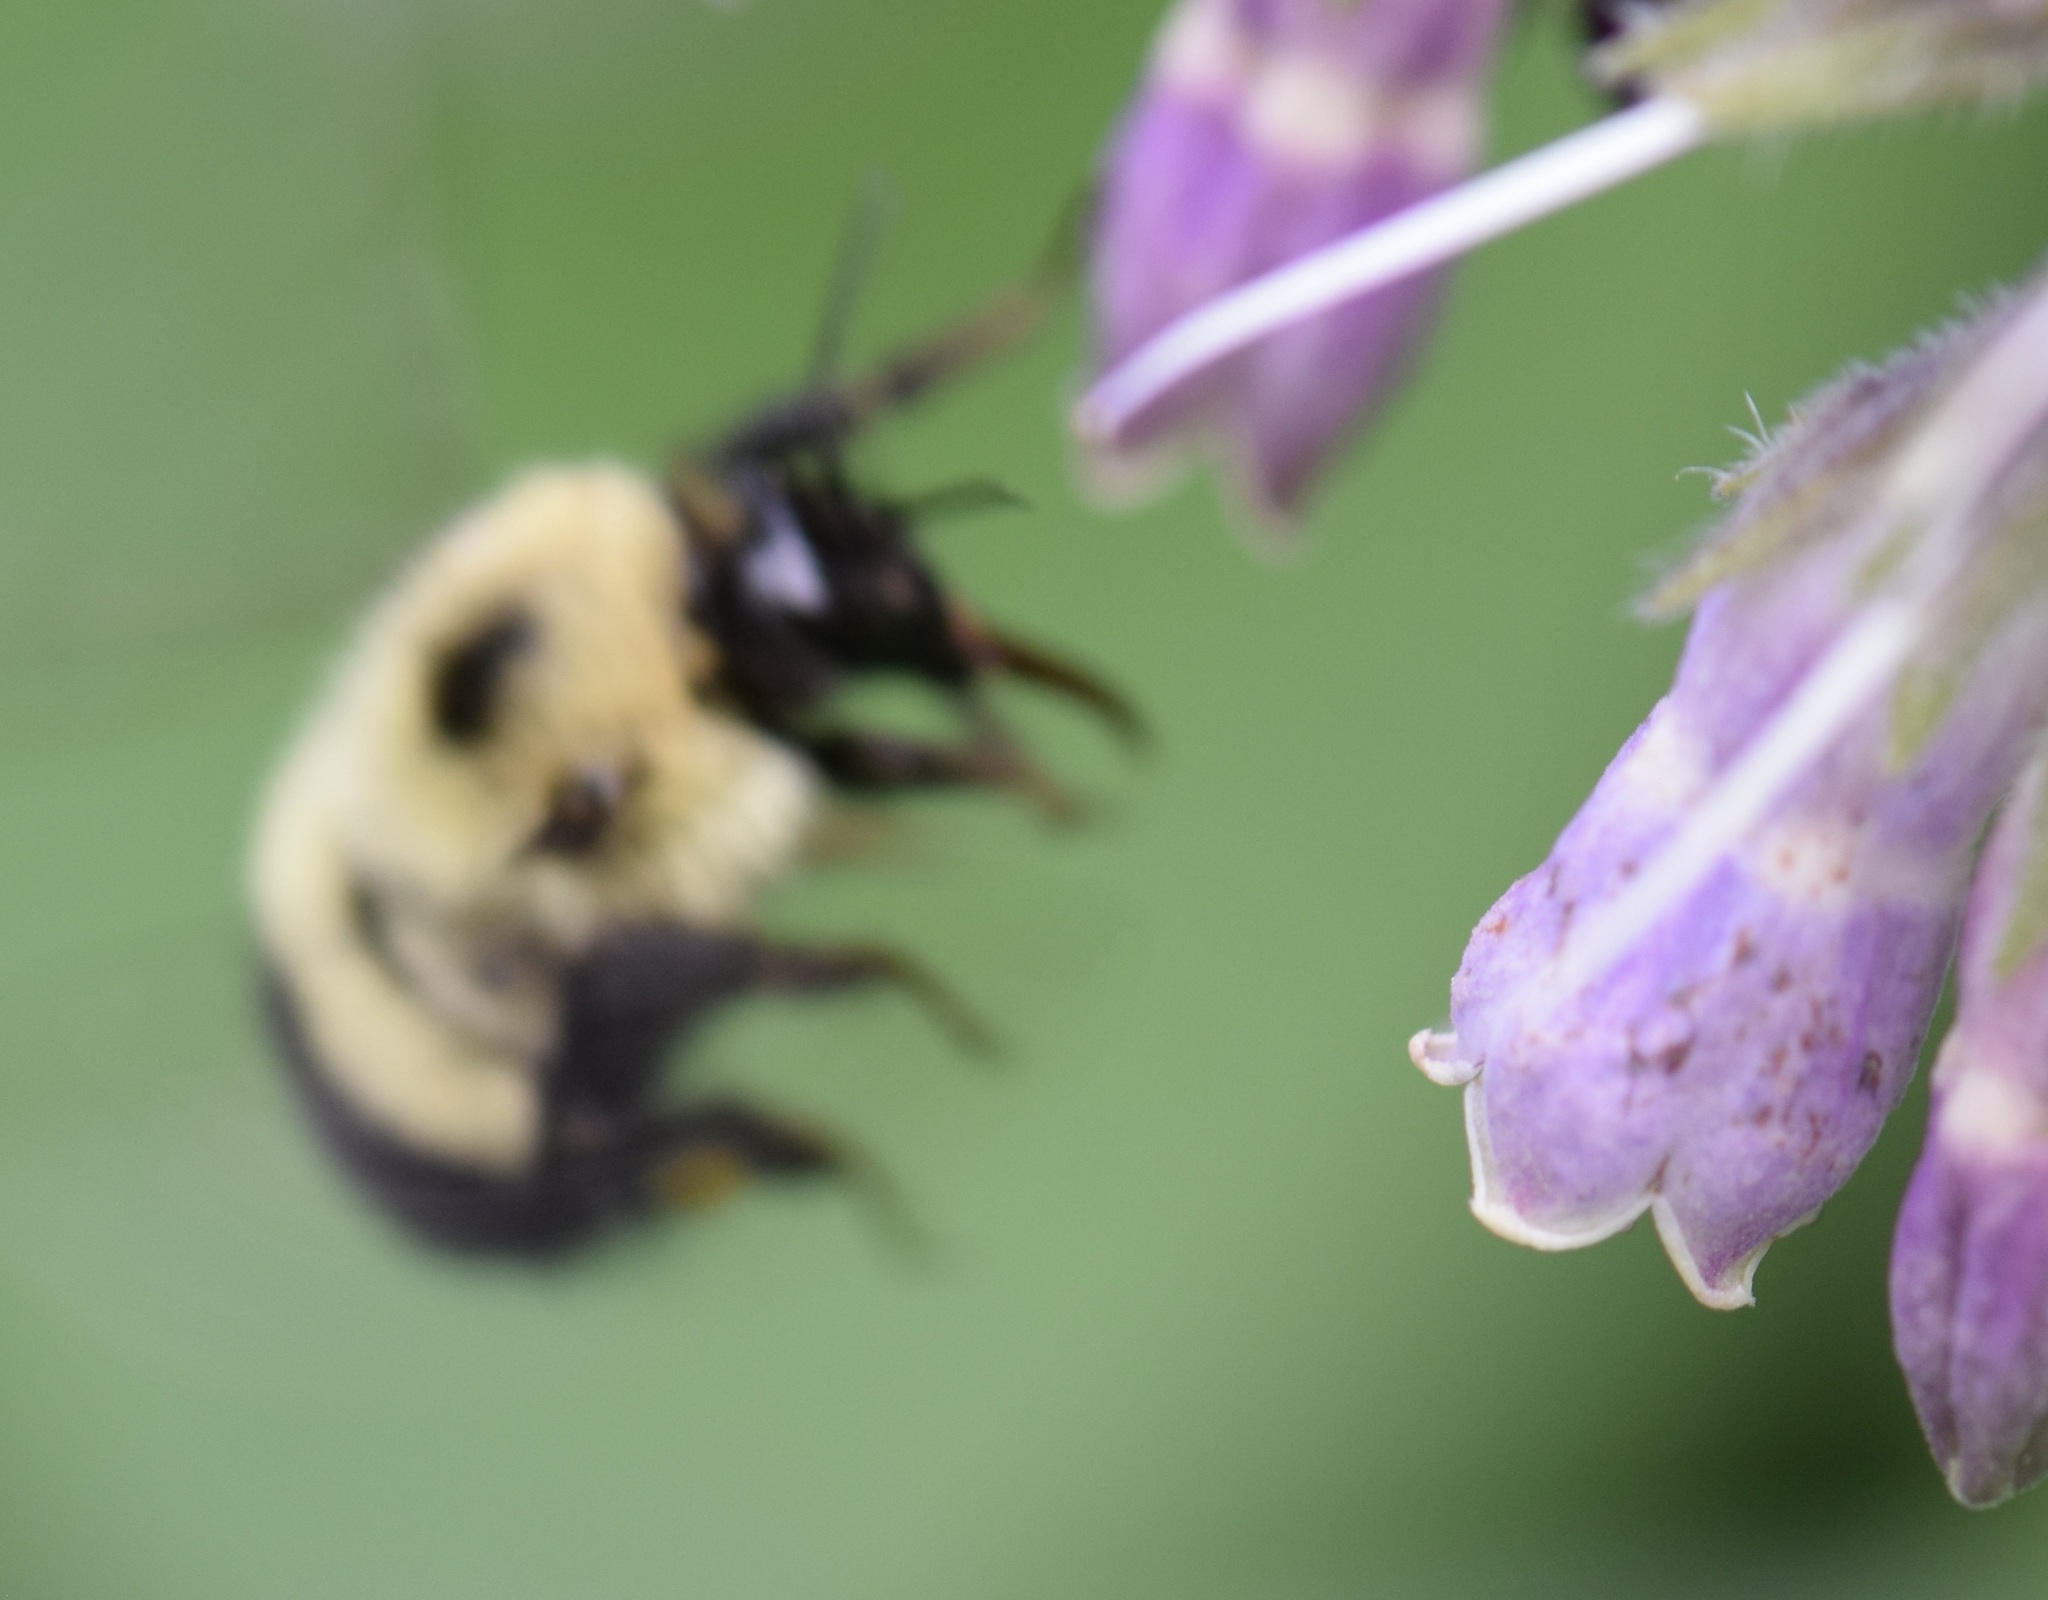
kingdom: Animalia
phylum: Arthropoda
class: Insecta
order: Hymenoptera
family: Apidae
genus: Pyrobombus
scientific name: Pyrobombus
